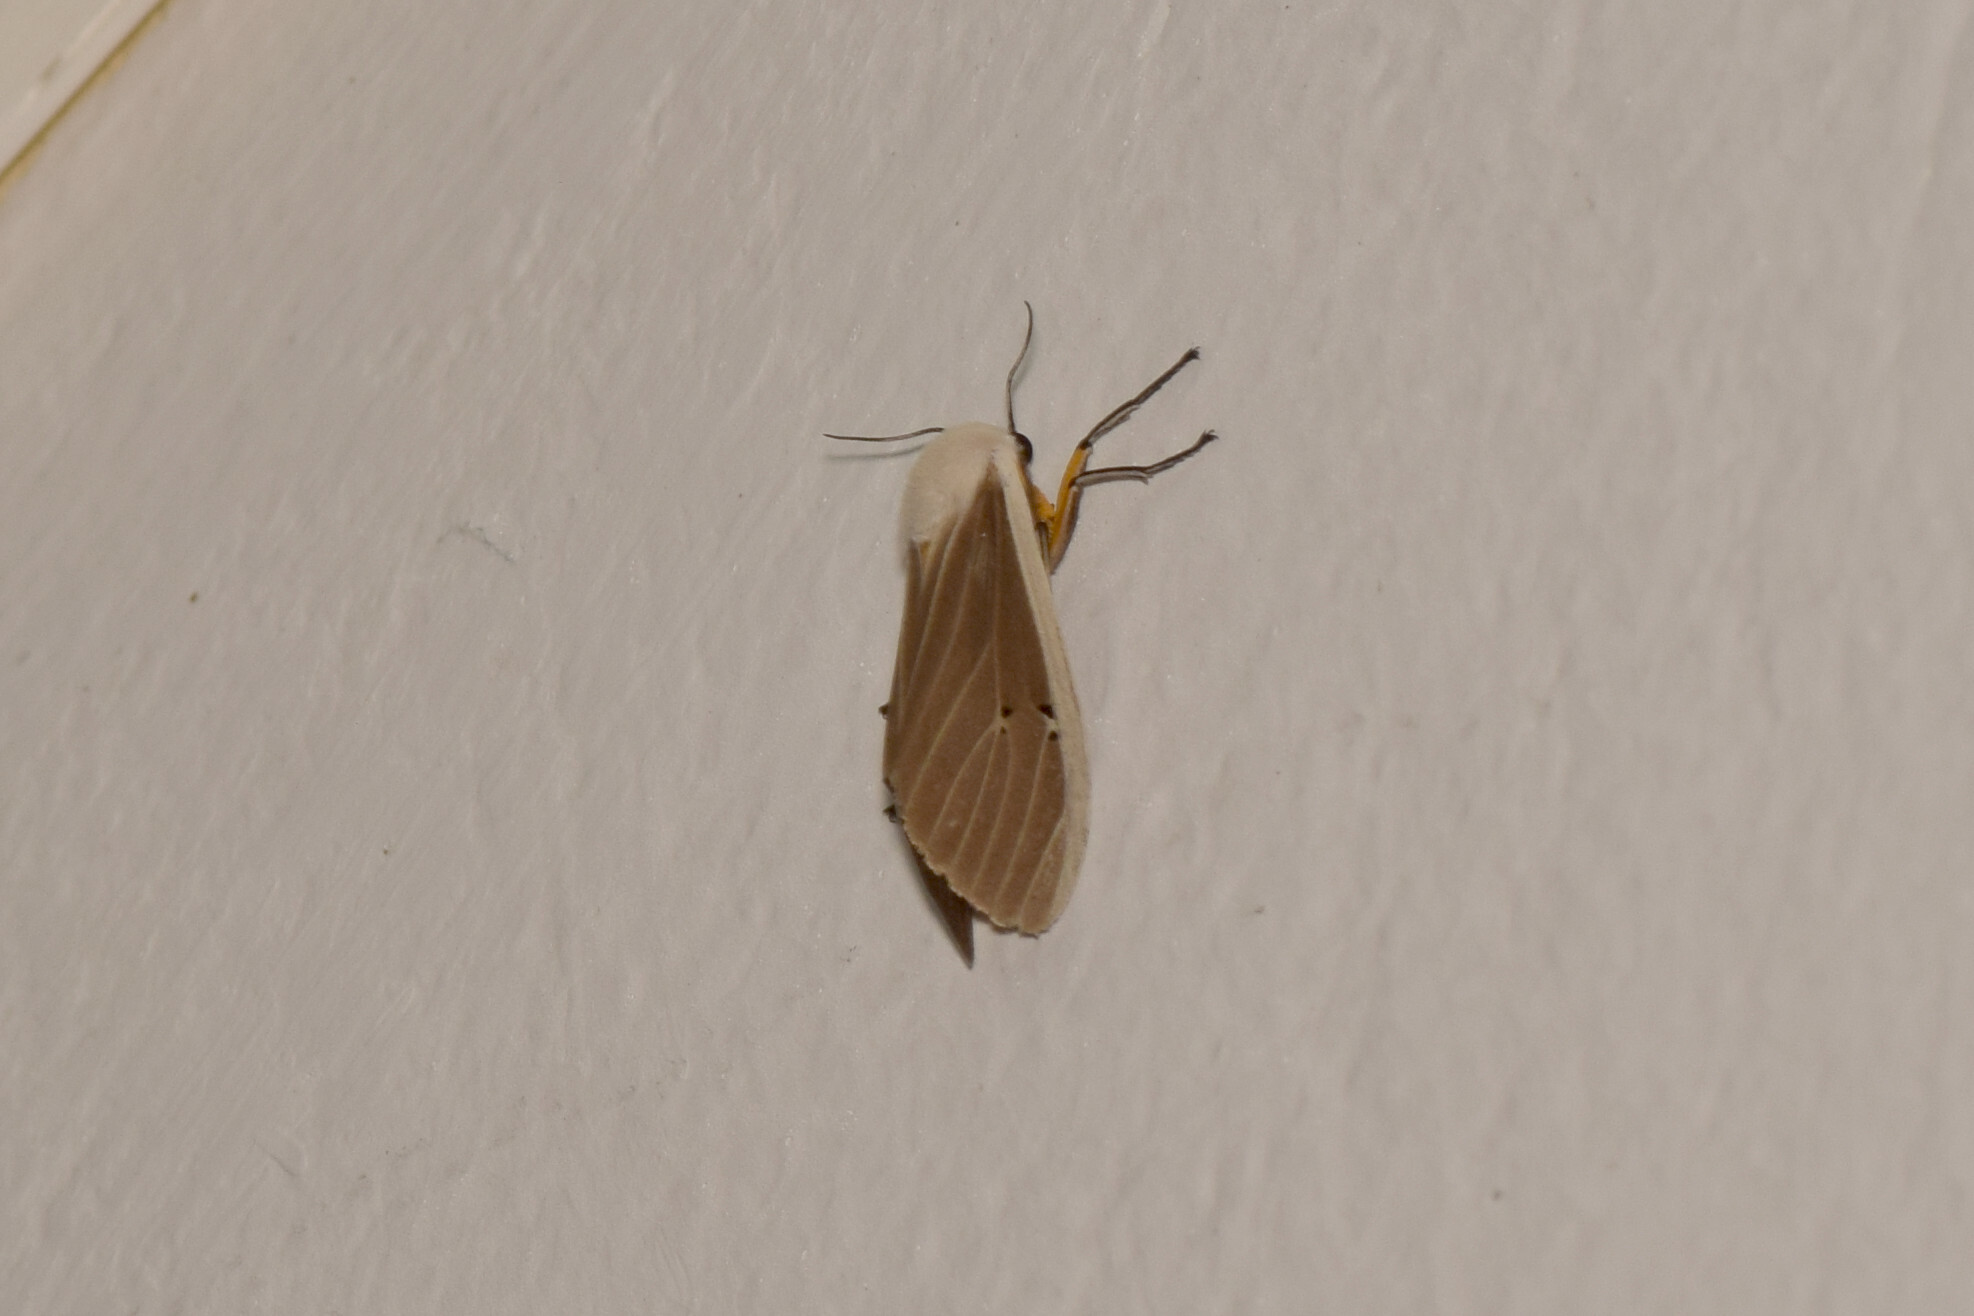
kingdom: Animalia
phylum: Arthropoda
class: Insecta
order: Lepidoptera
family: Erebidae
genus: Creatonotos
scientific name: Creatonotos transiens
